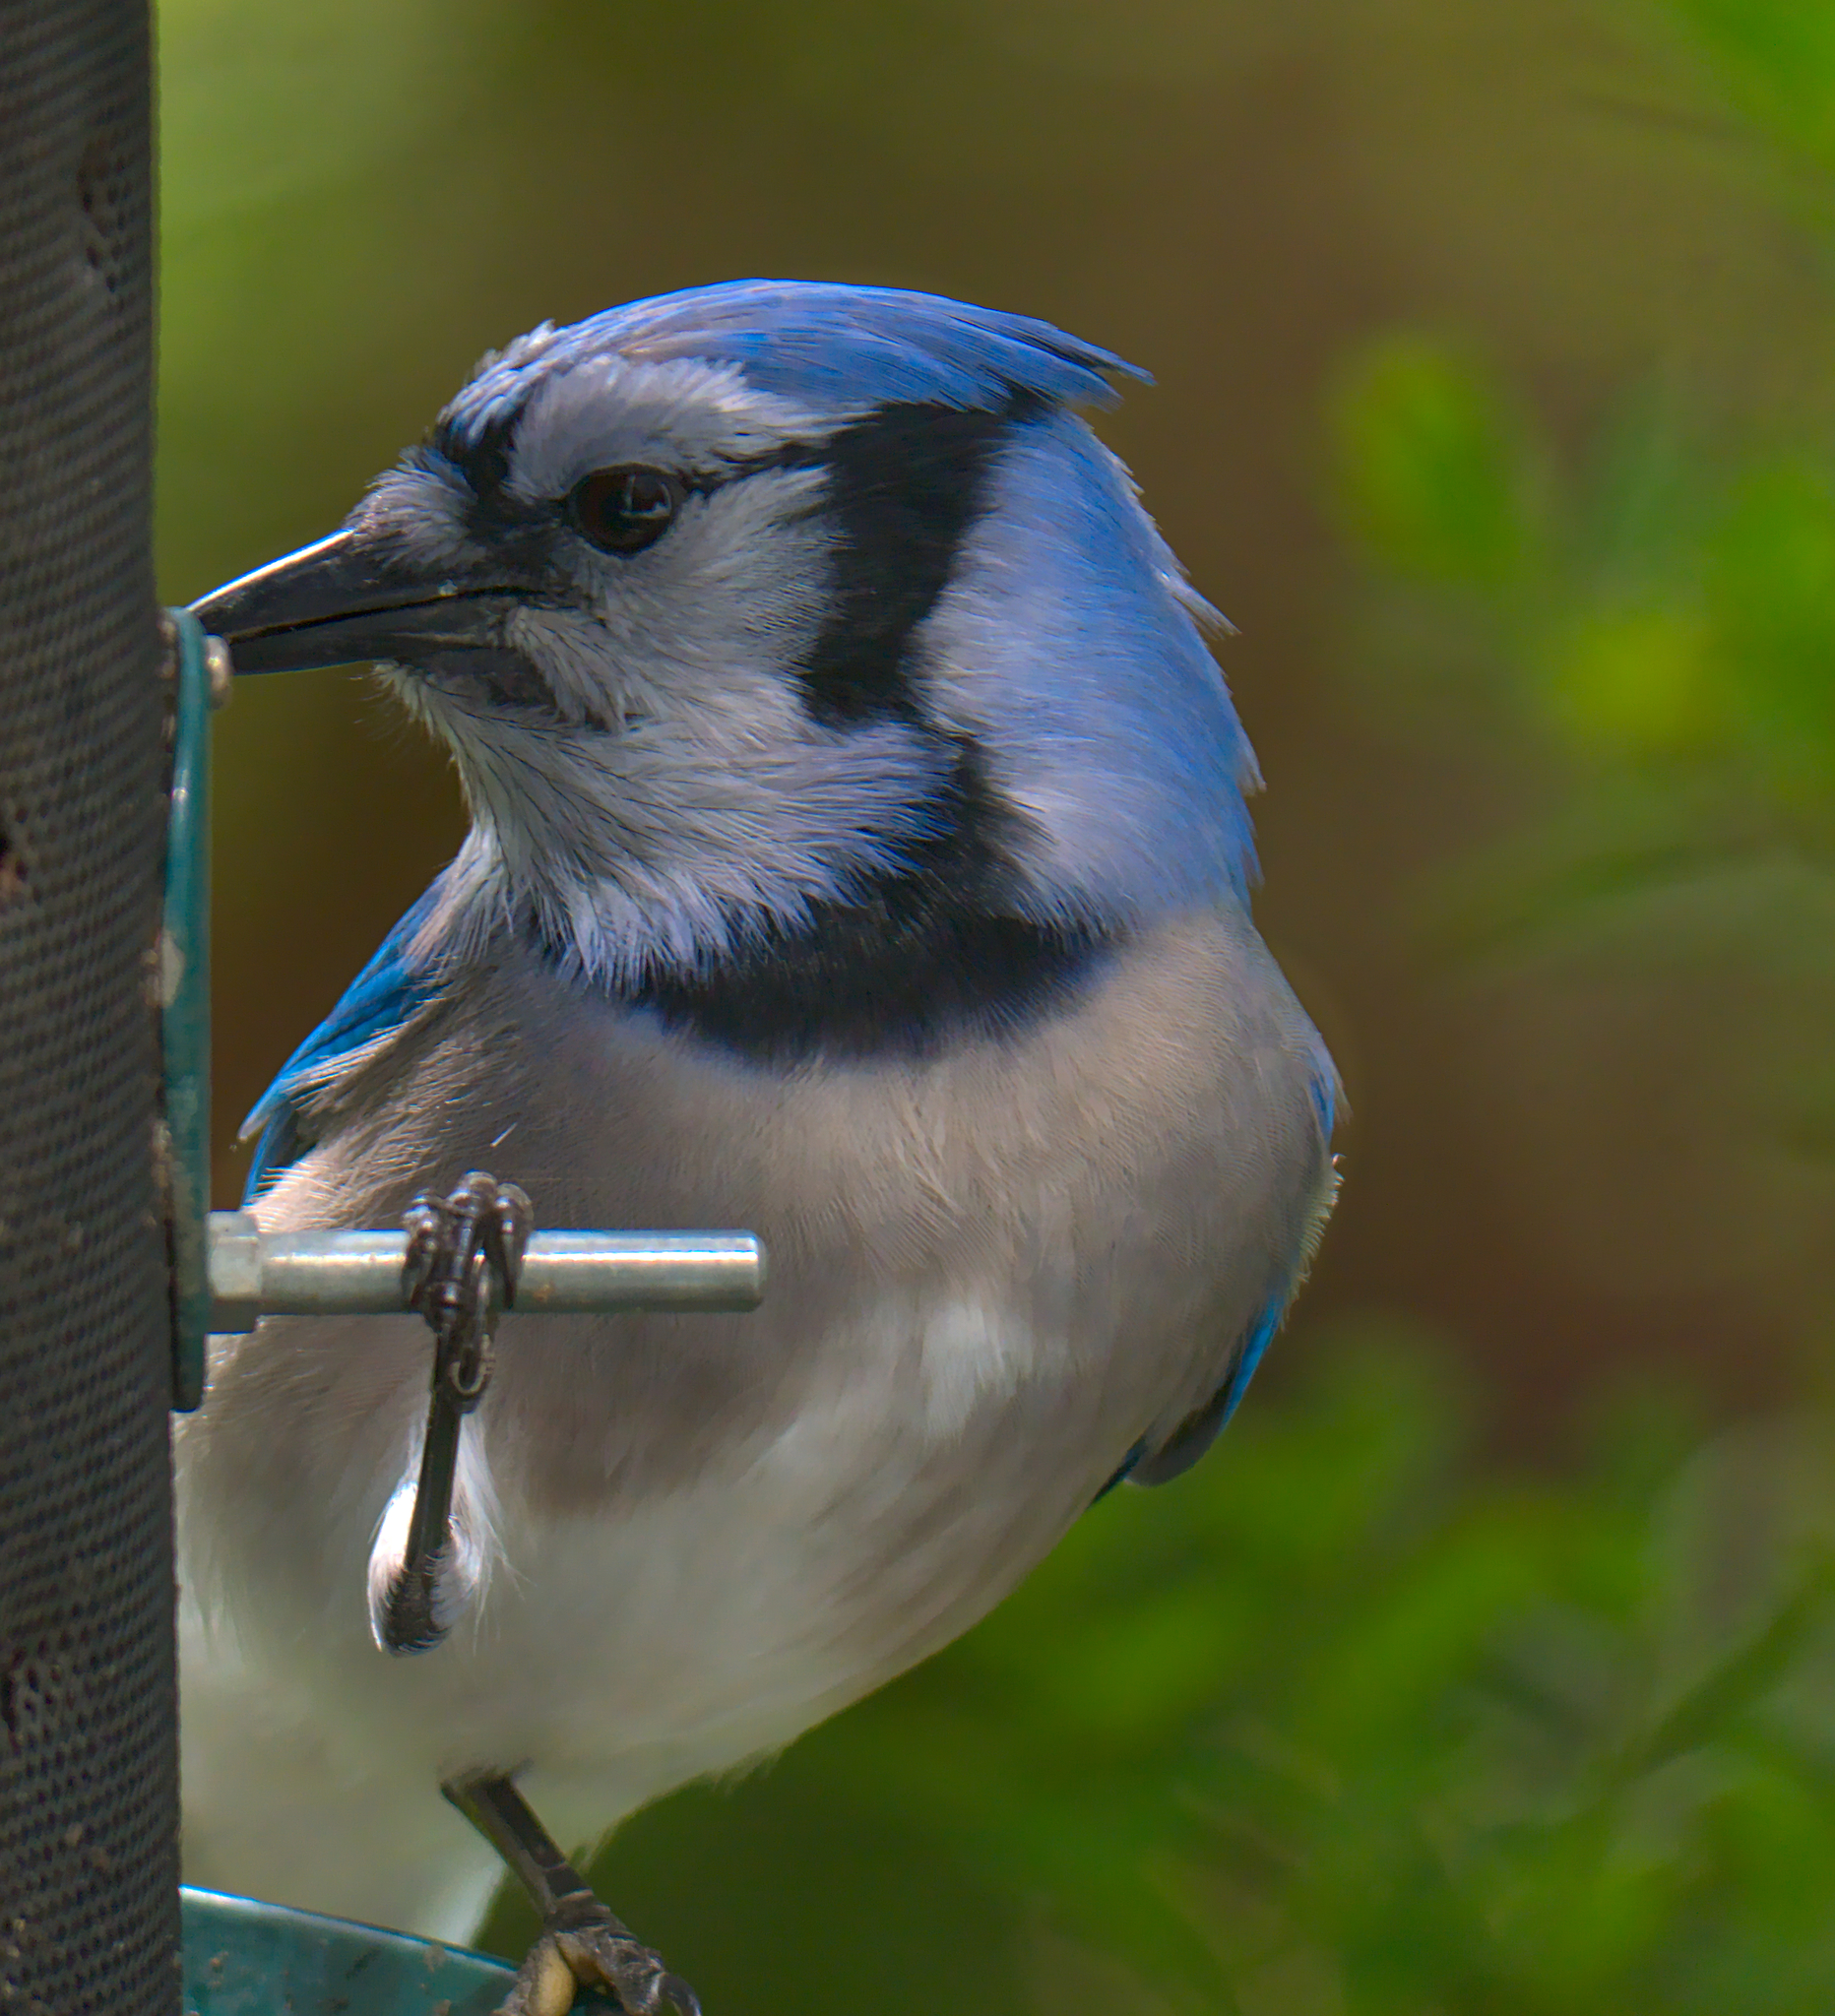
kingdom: Animalia
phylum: Chordata
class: Aves
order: Passeriformes
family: Corvidae
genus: Cyanocitta
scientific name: Cyanocitta cristata
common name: Blue jay
